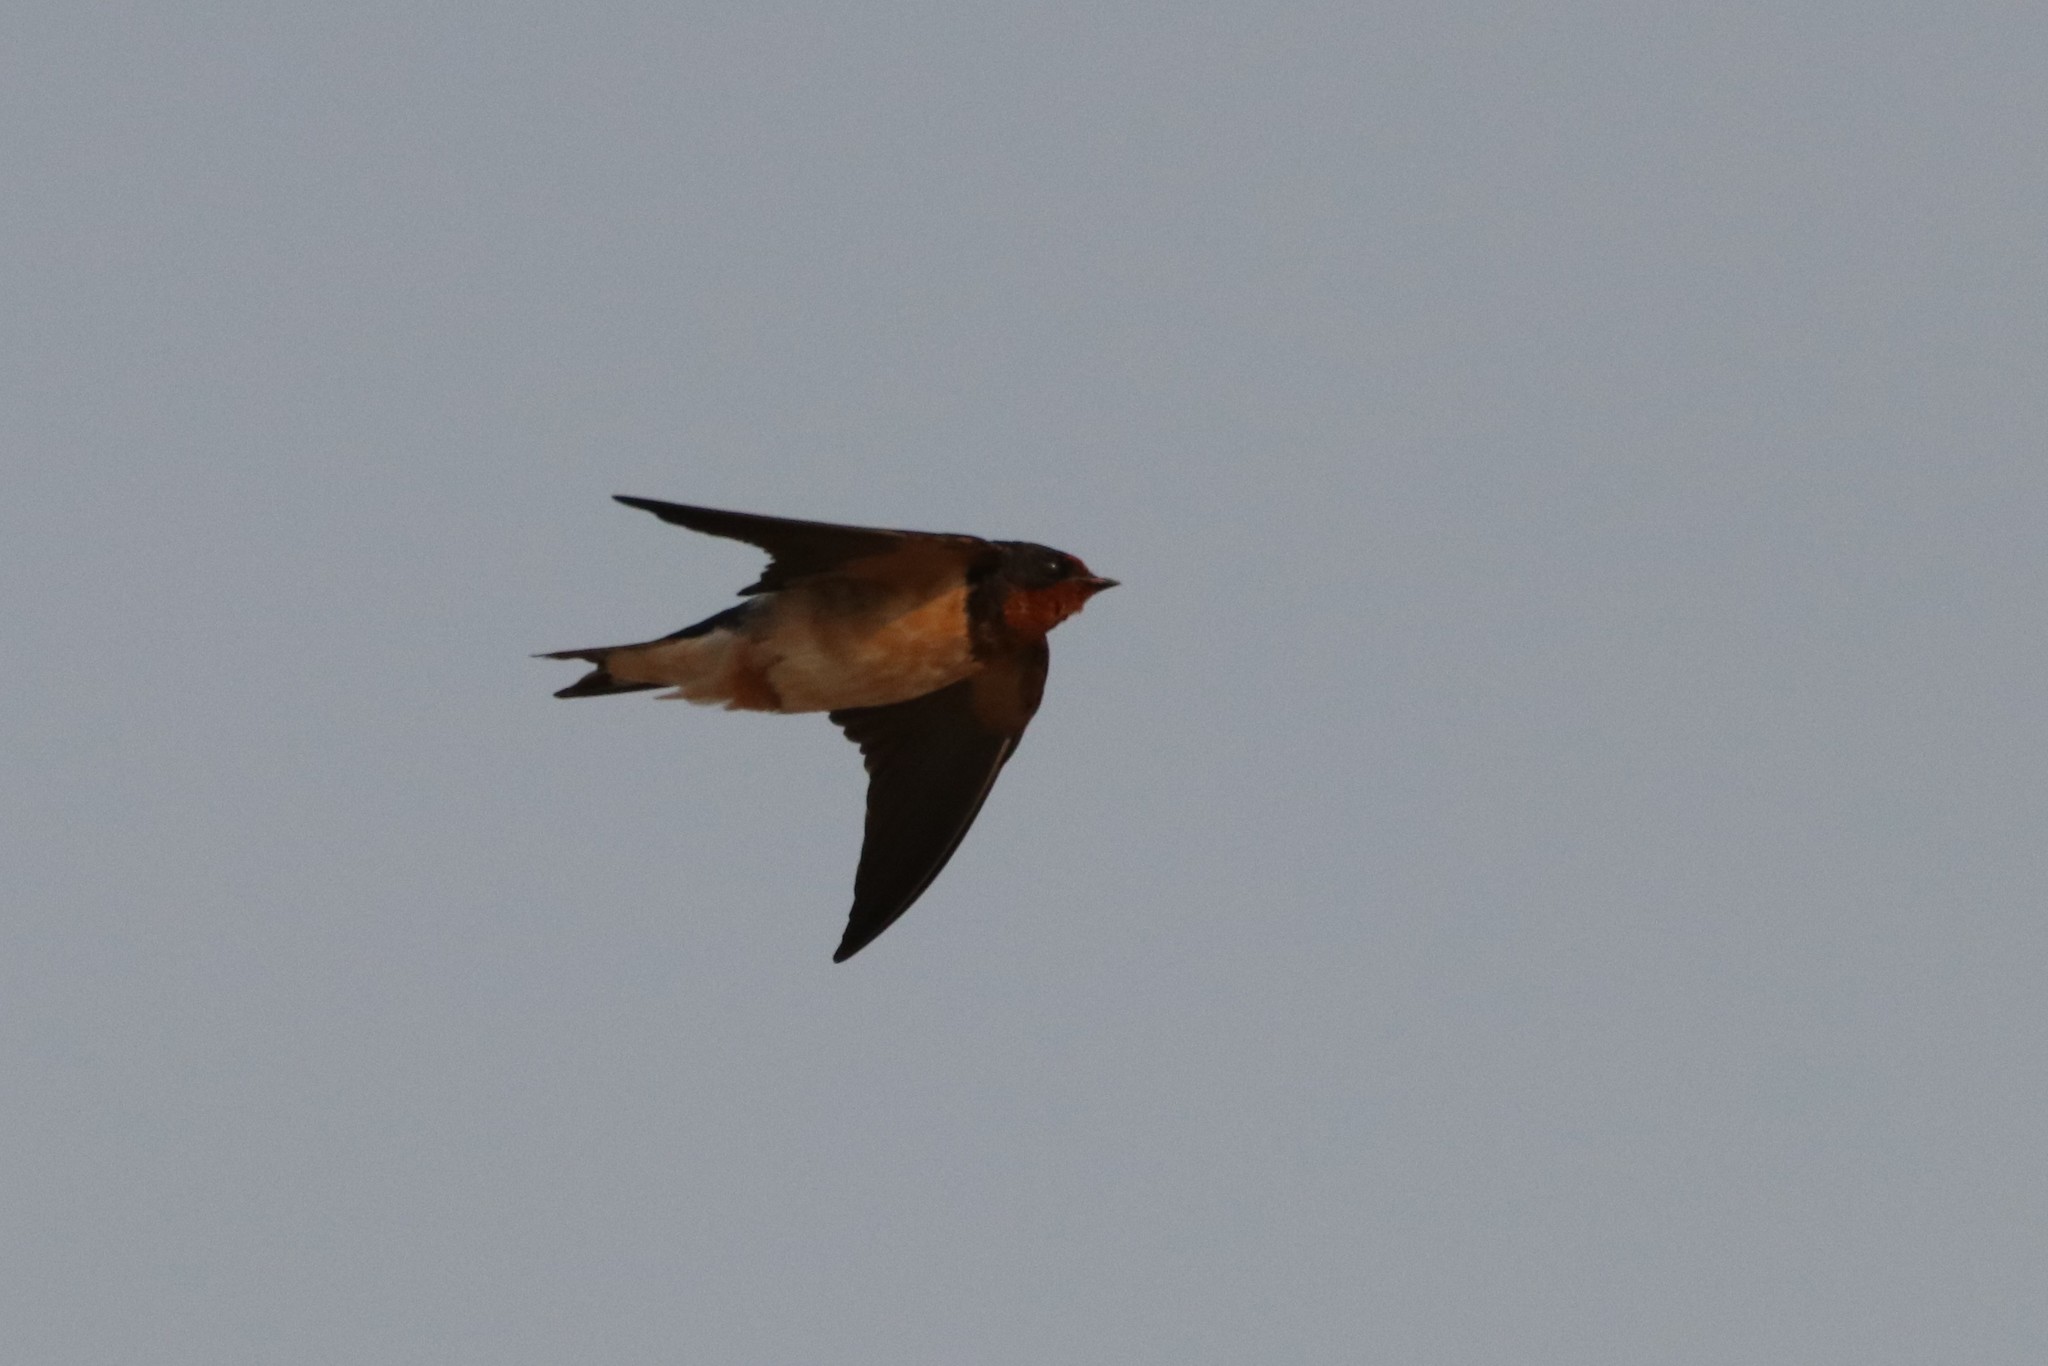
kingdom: Animalia
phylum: Chordata
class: Aves
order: Passeriformes
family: Hirundinidae
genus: Hirundo
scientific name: Hirundo rustica
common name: Barn swallow
